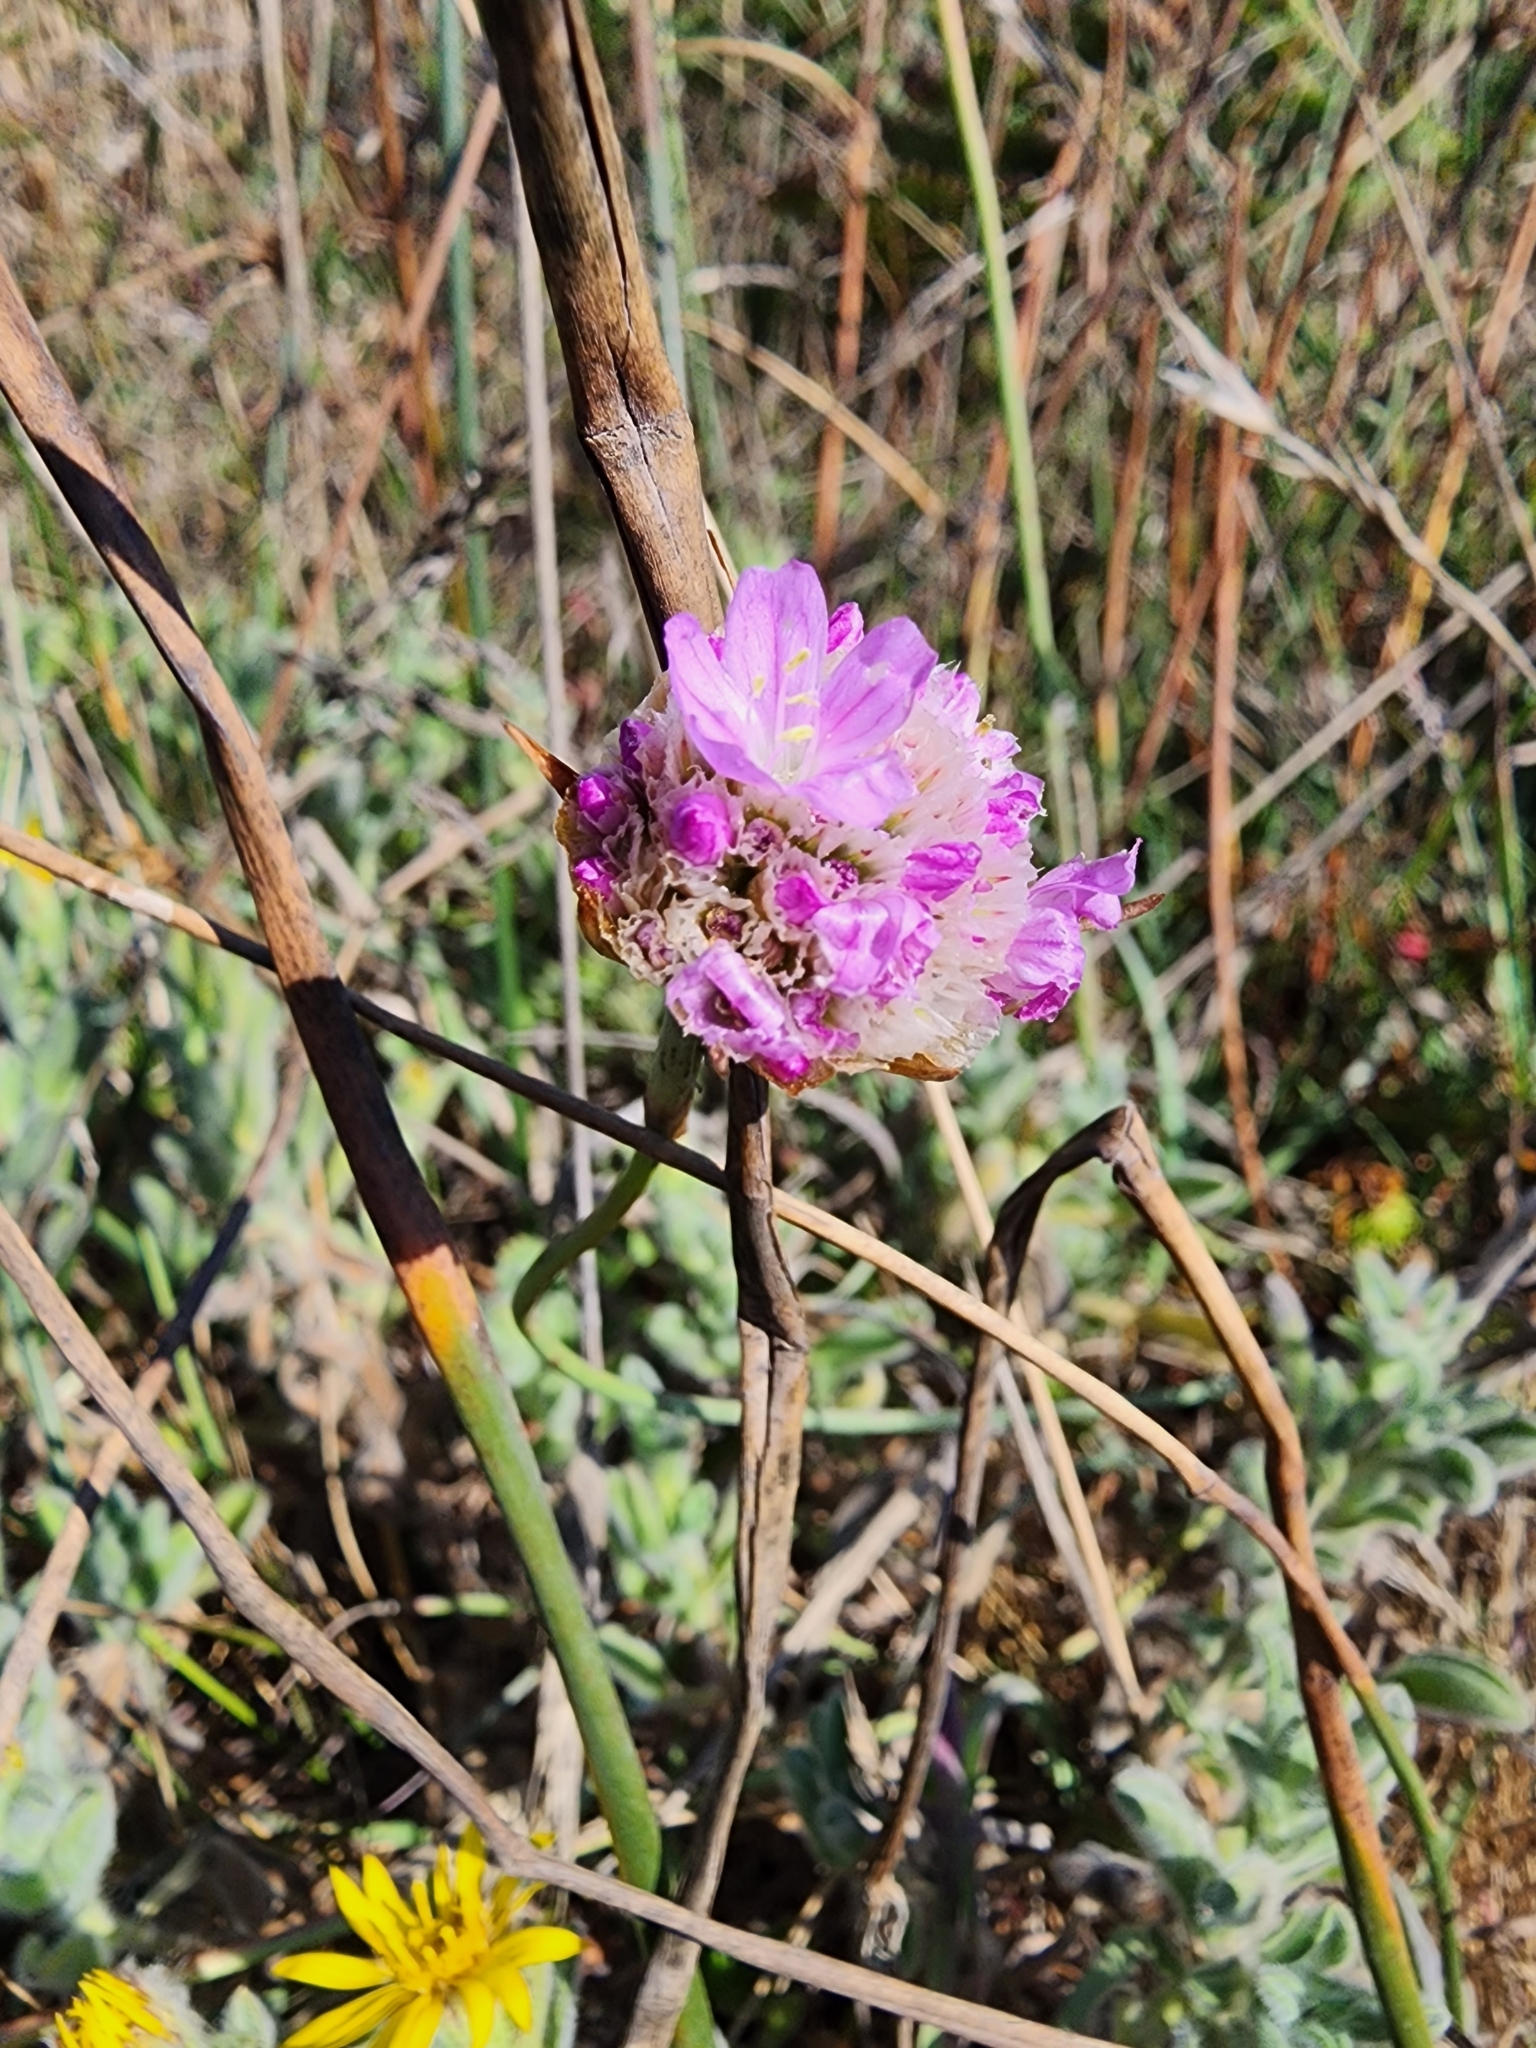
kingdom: Plantae
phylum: Tracheophyta
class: Magnoliopsida
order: Caryophyllales
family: Plumbaginaceae
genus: Armeria
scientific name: Armeria maritima
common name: Thrift
